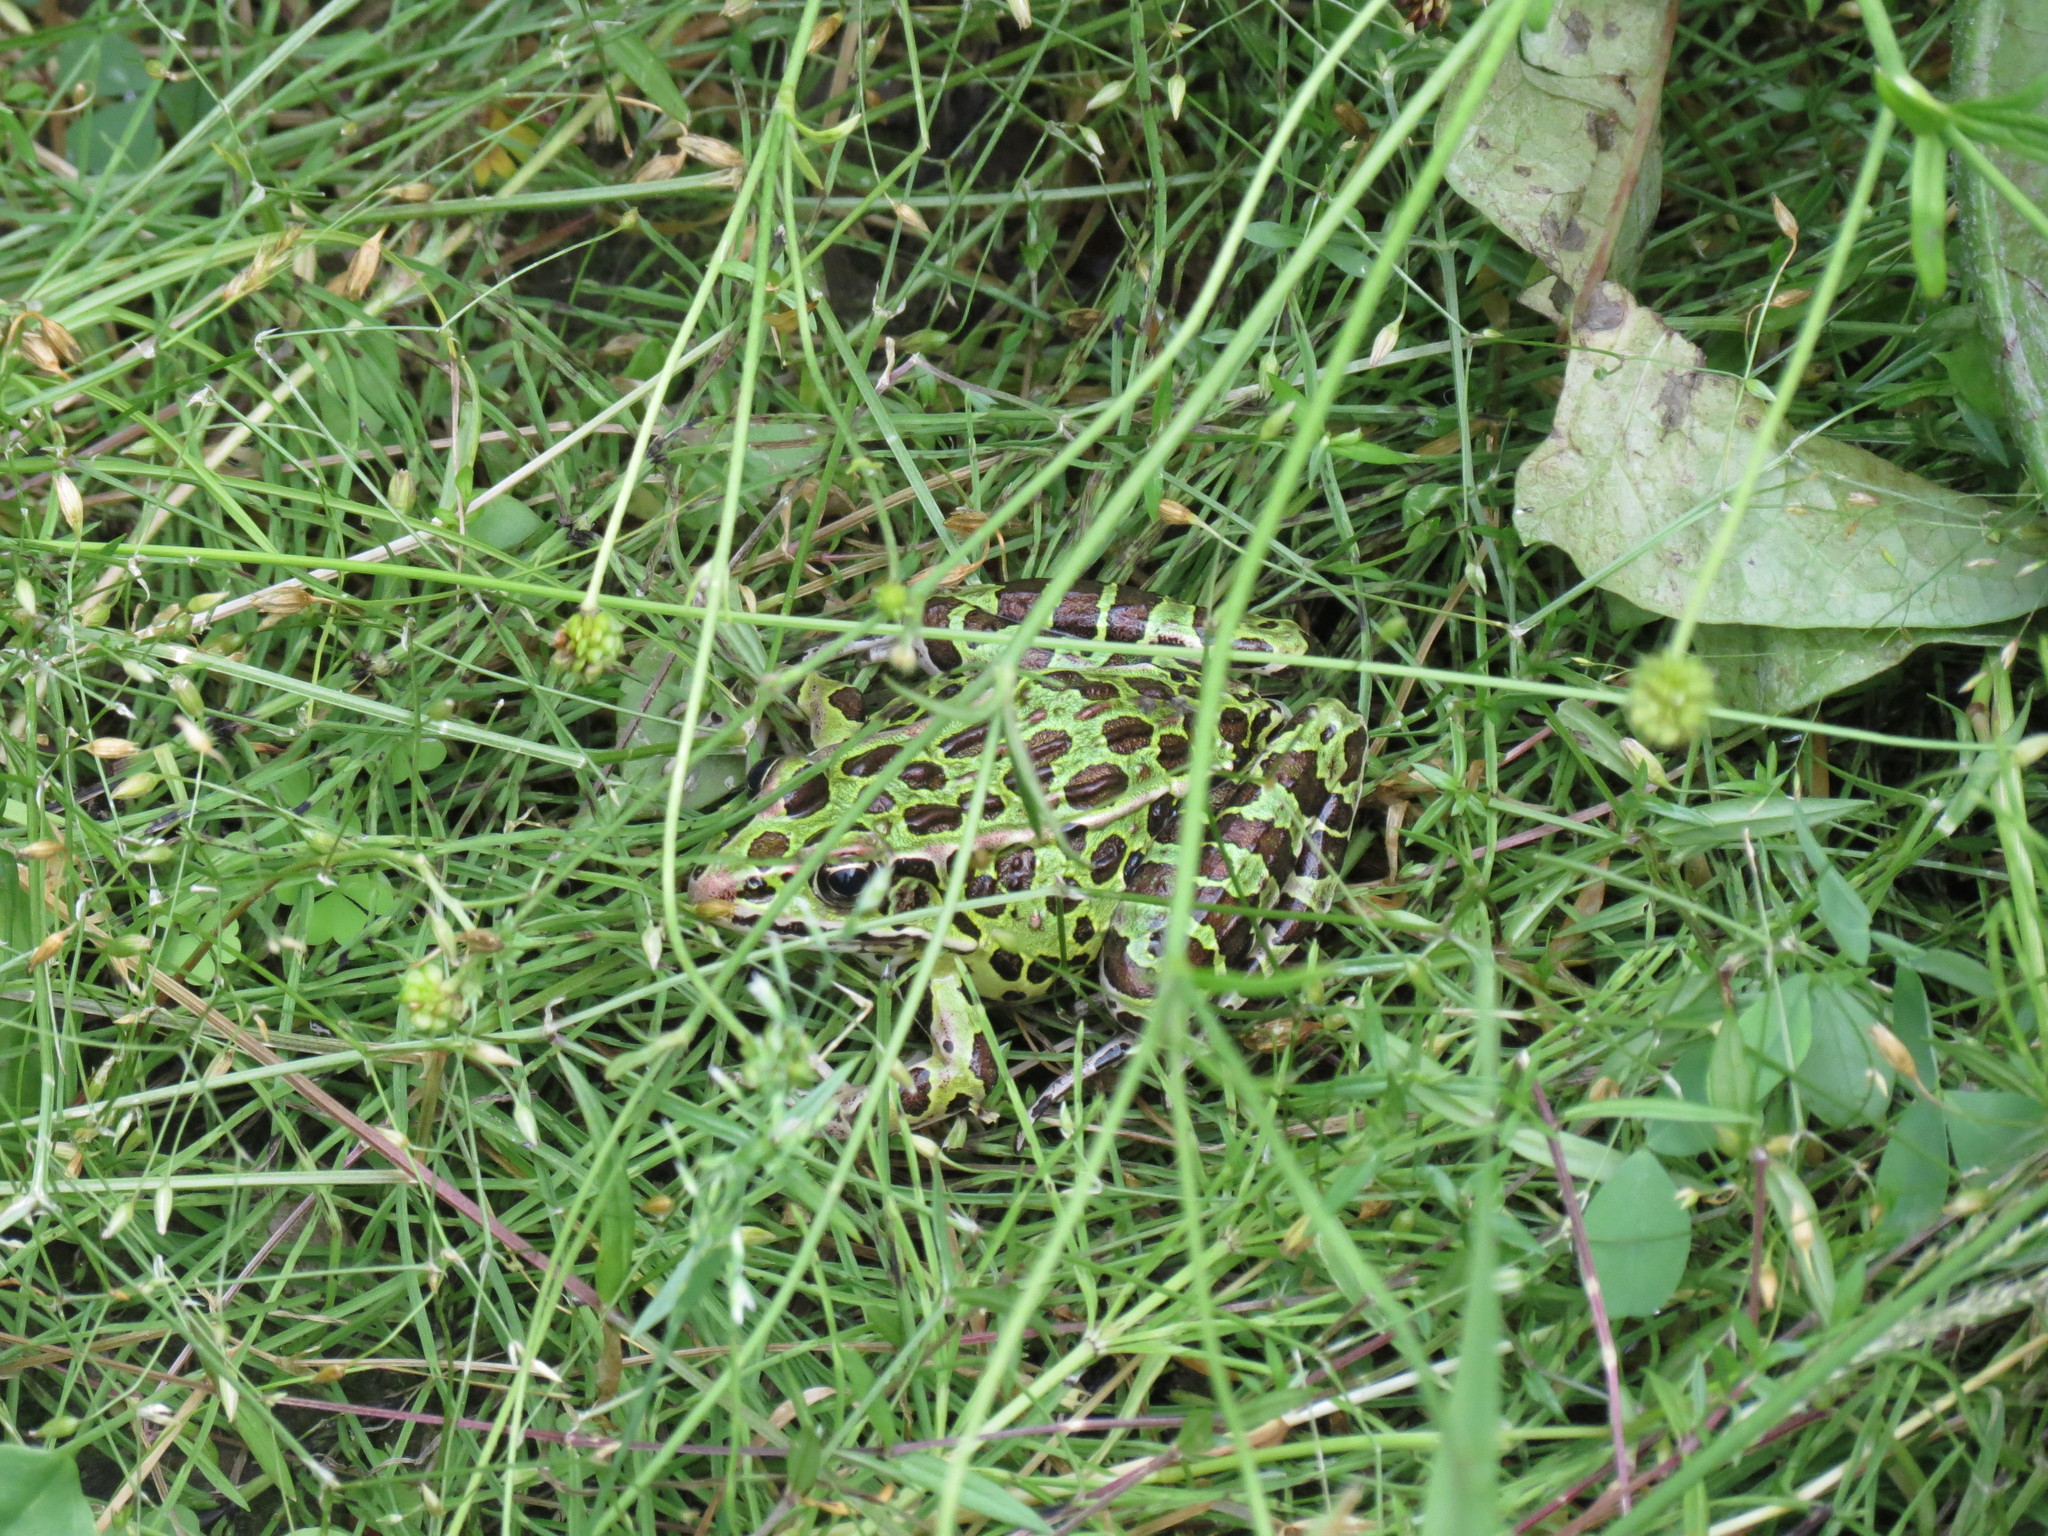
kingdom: Animalia
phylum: Chordata
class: Amphibia
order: Anura
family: Ranidae
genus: Lithobates
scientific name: Lithobates pipiens
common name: Northern leopard frog
